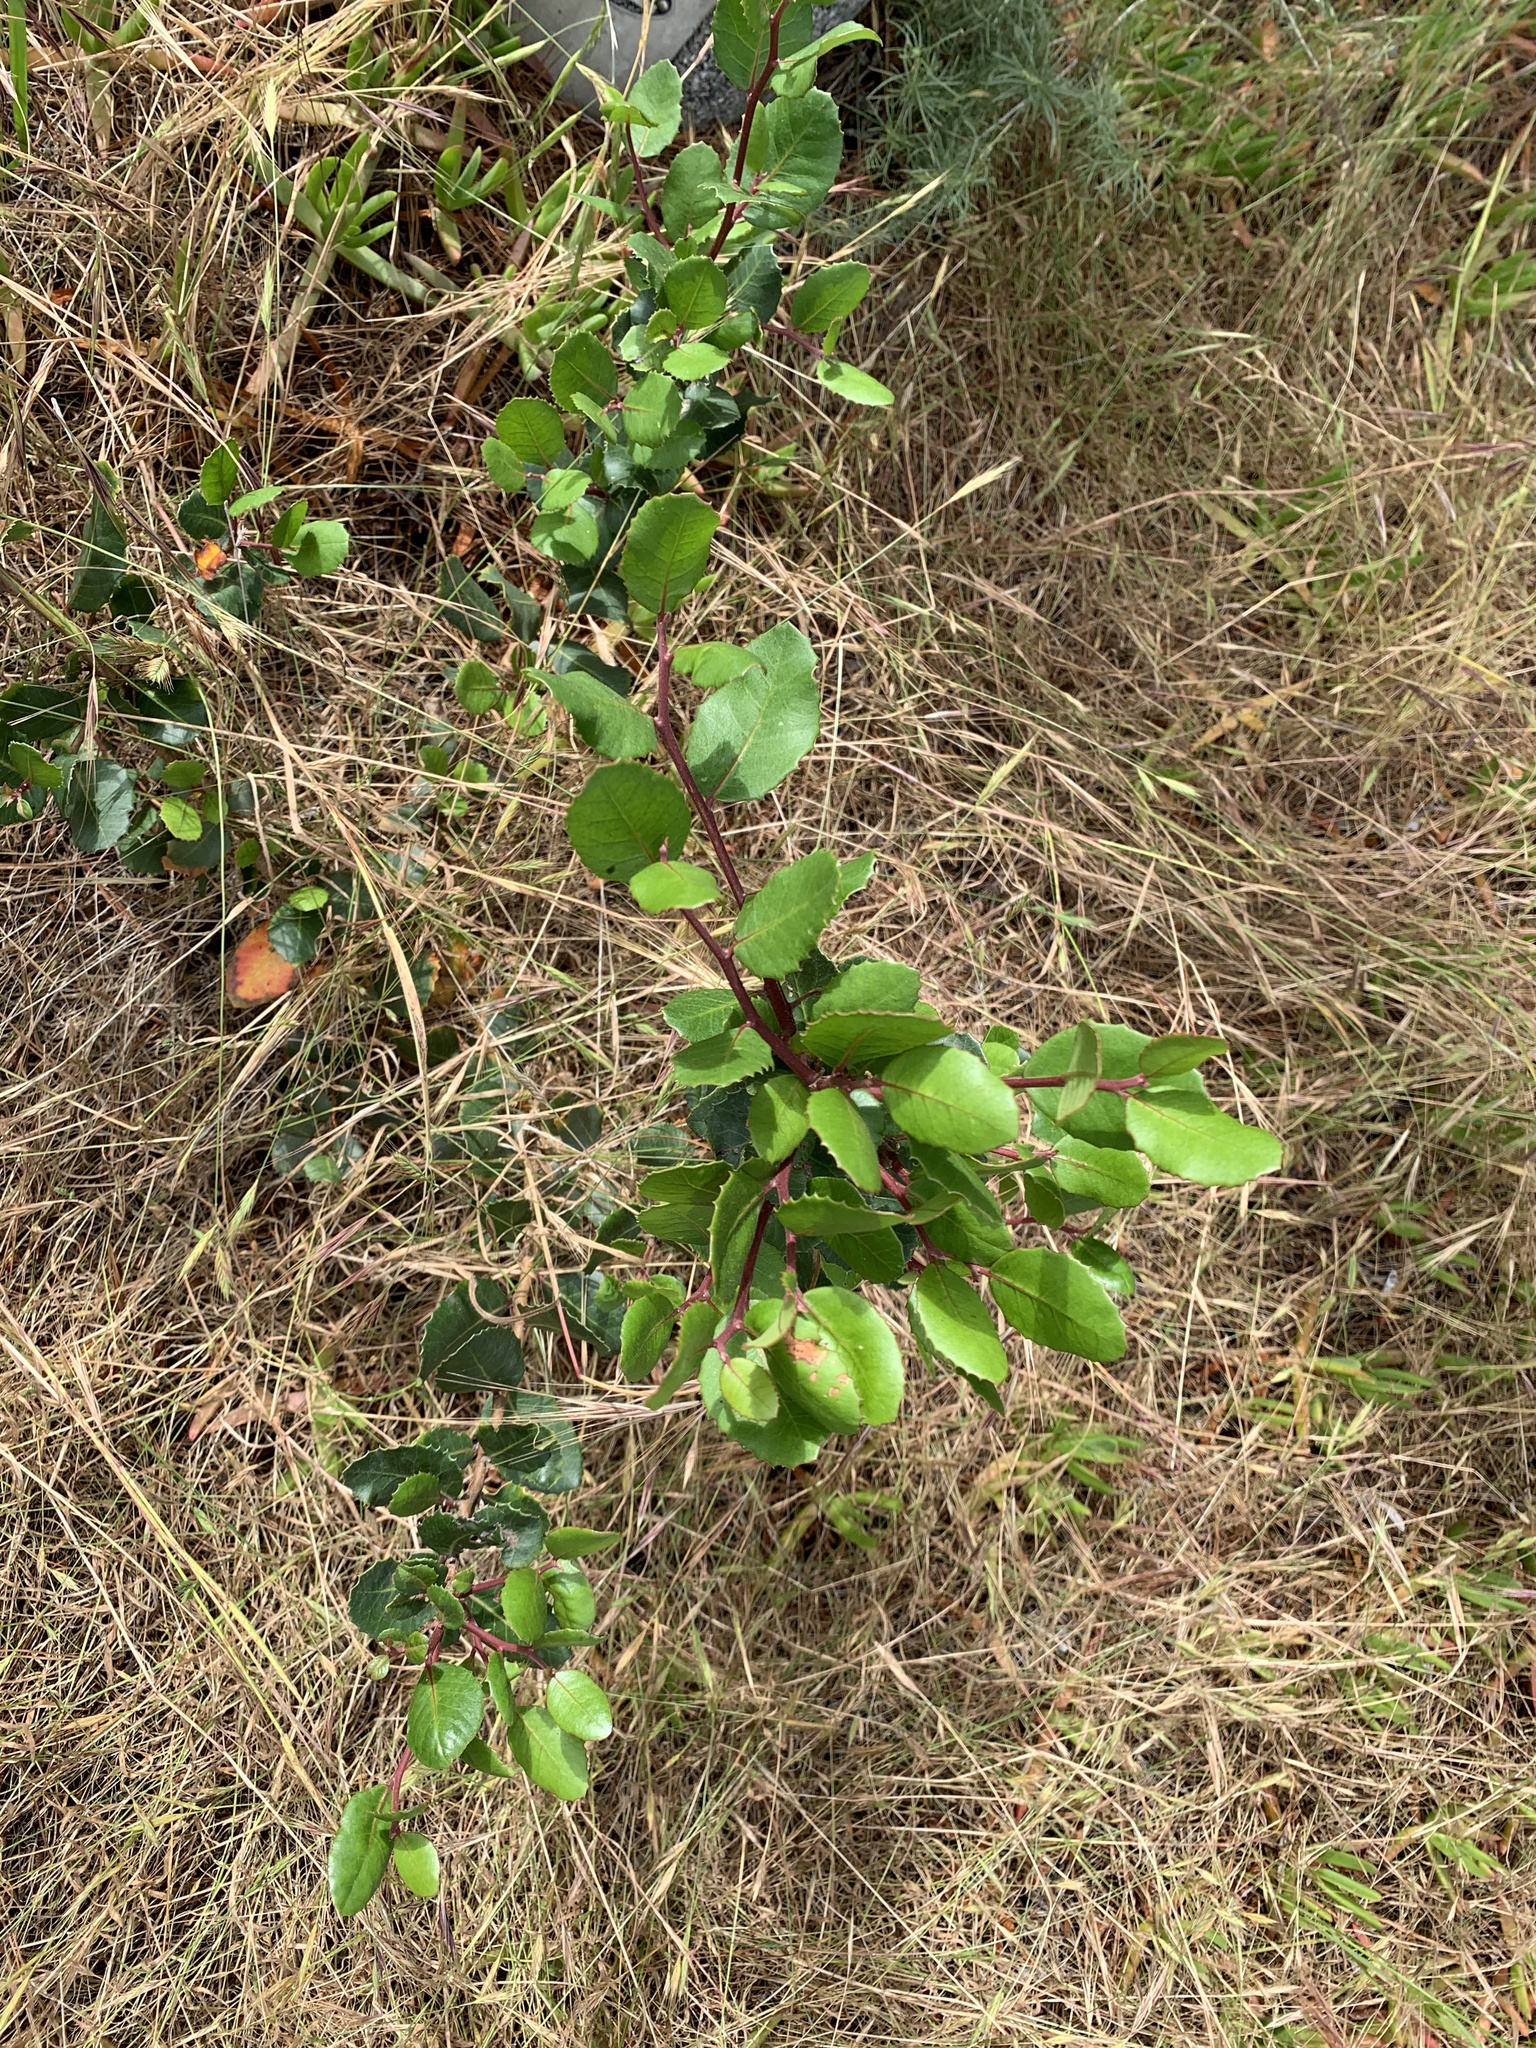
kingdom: Plantae
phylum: Tracheophyta
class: Magnoliopsida
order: Sapindales
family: Anacardiaceae
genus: Rhus
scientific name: Rhus integrifolia
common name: Lemonade sumac
